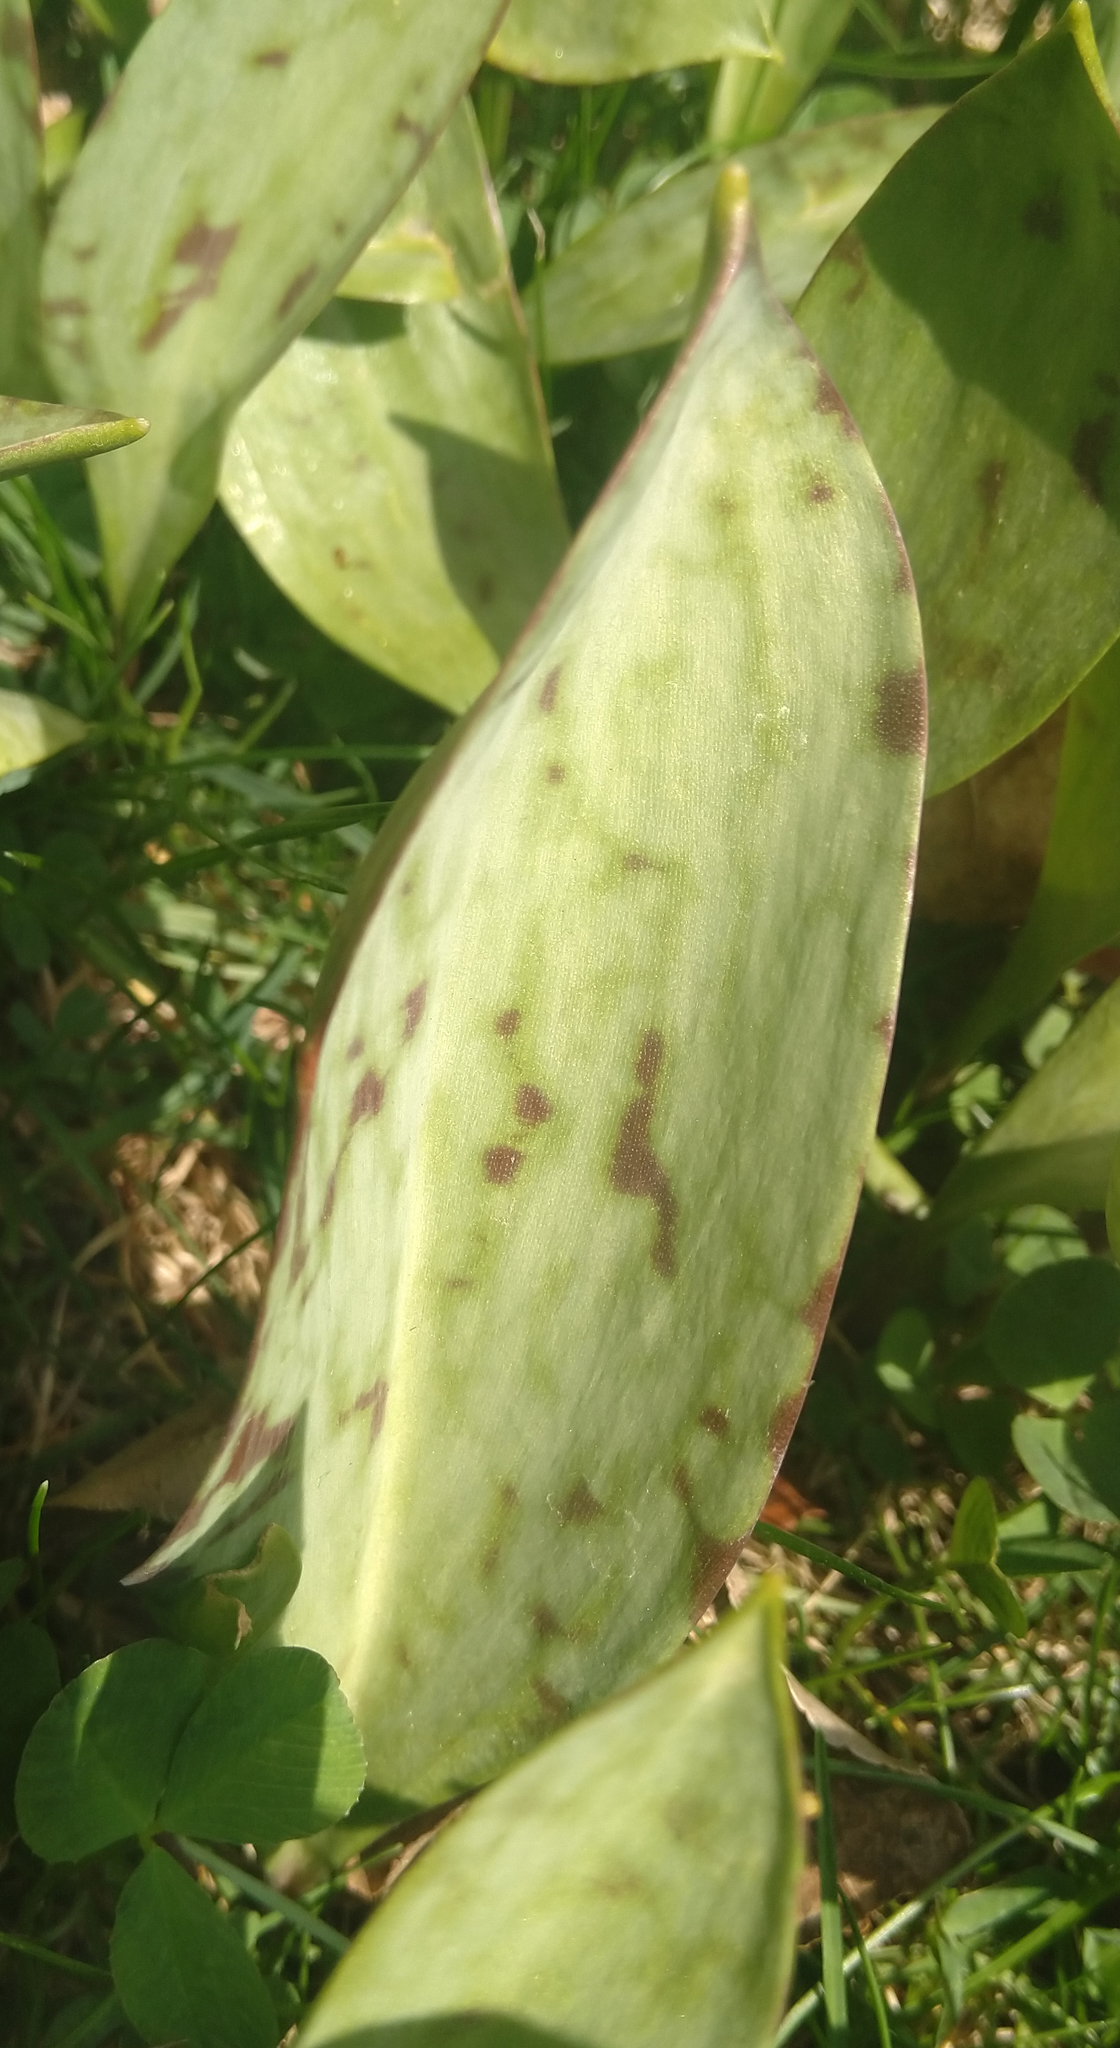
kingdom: Plantae
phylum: Tracheophyta
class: Liliopsida
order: Liliales
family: Liliaceae
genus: Erythronium
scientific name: Erythronium albidum
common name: White trout-lily
